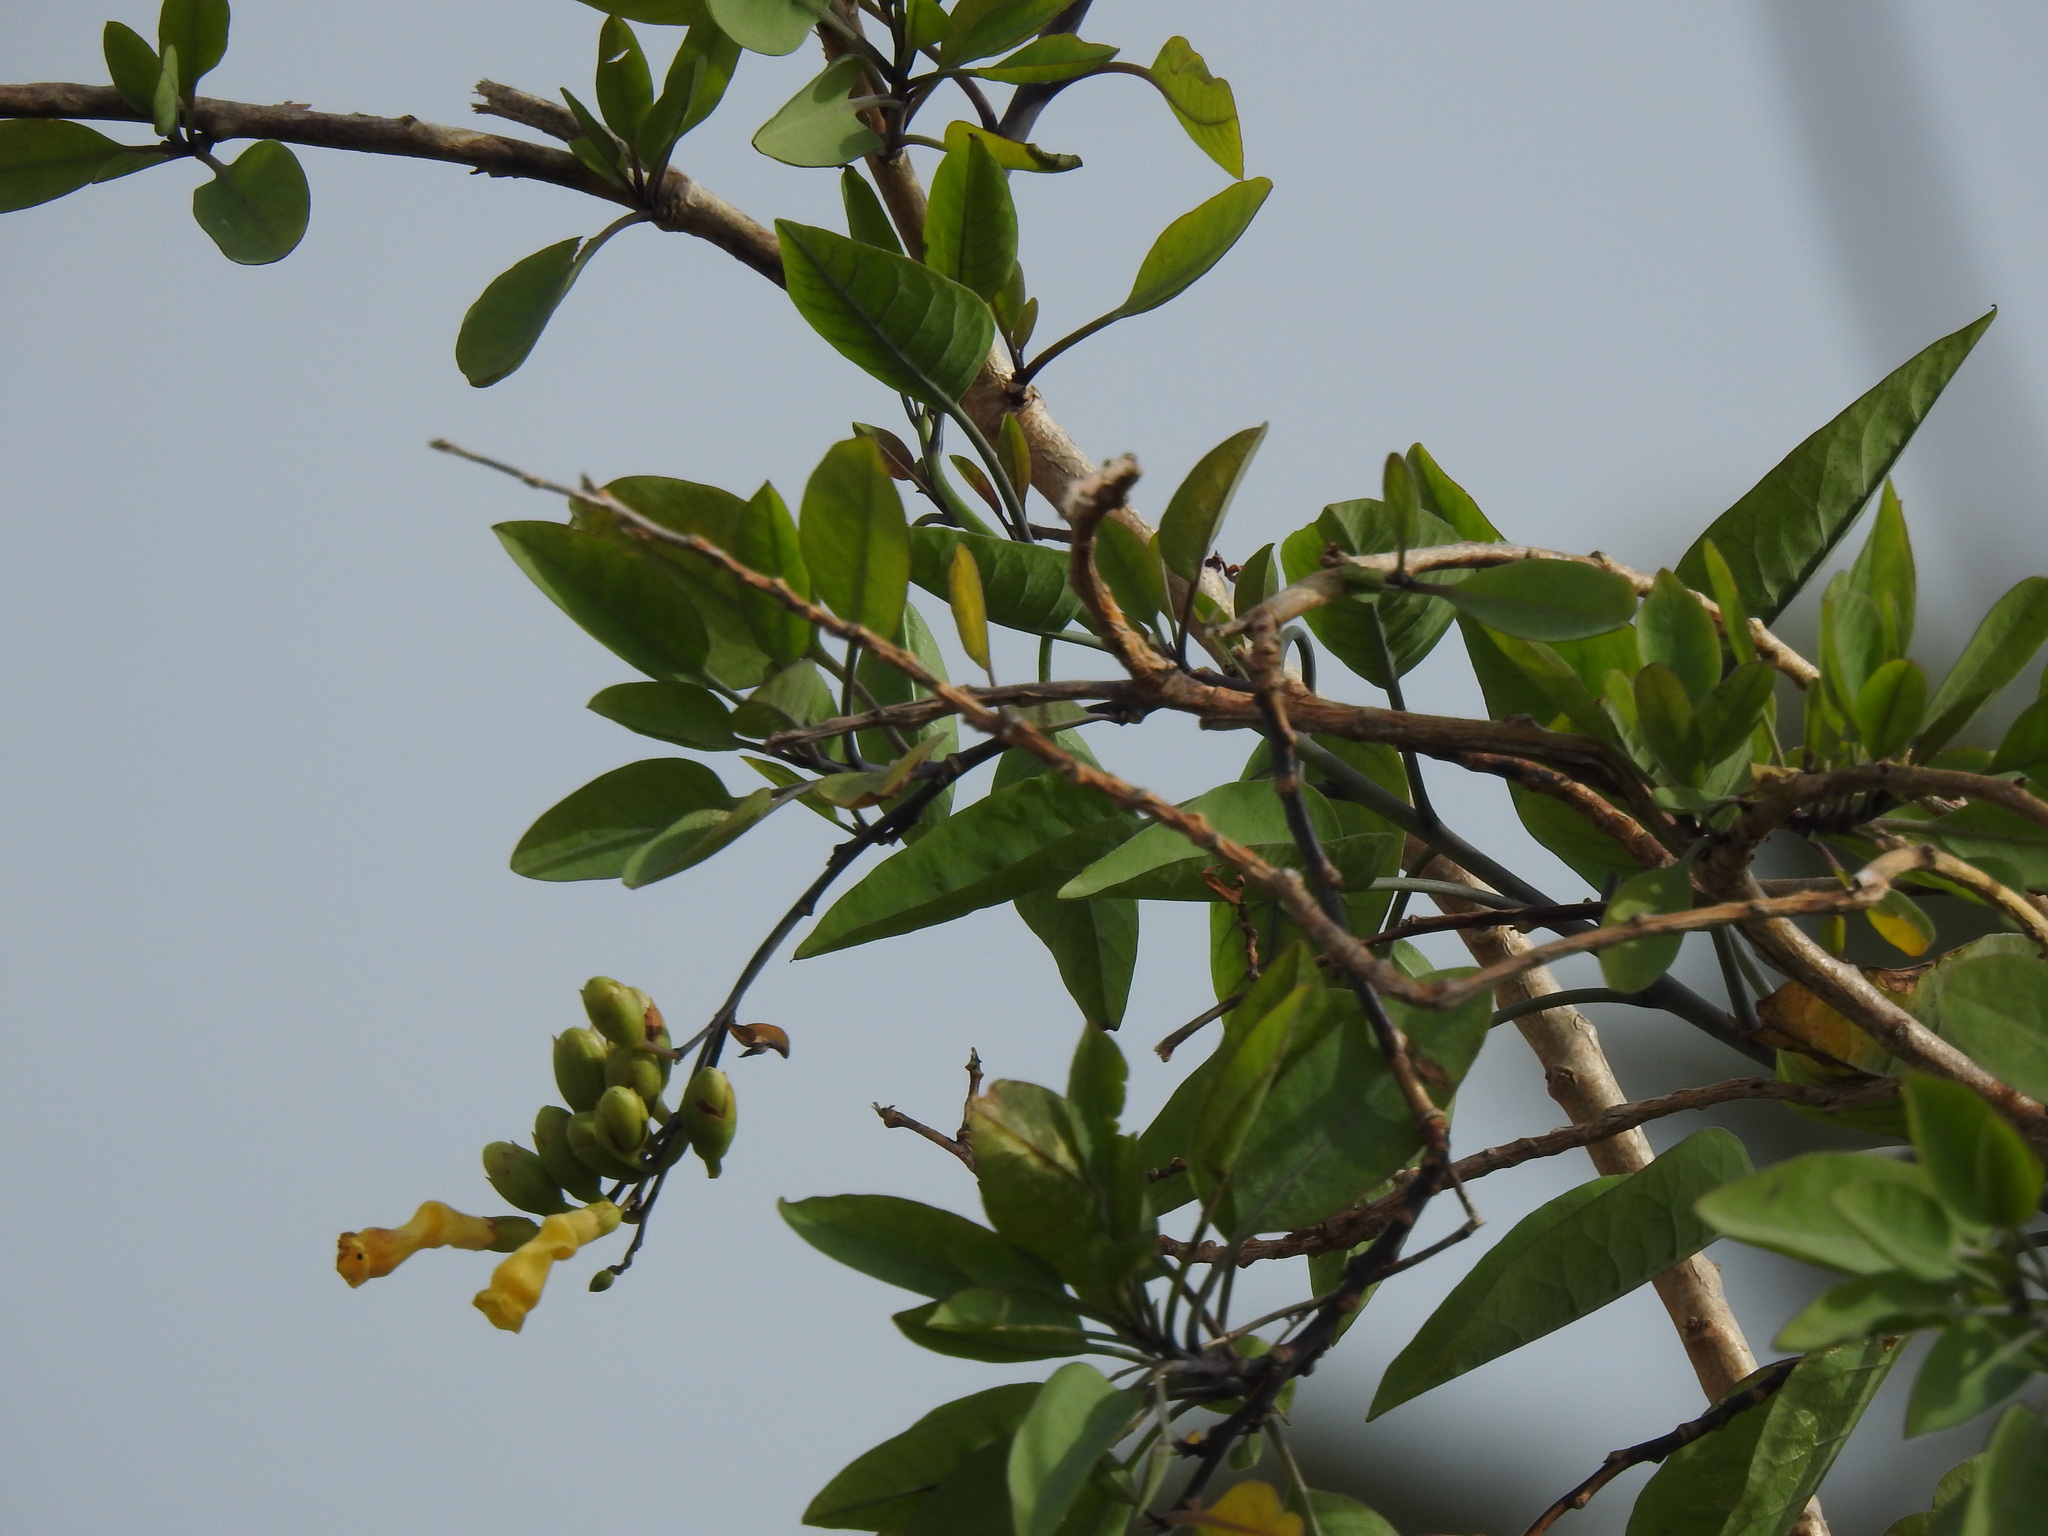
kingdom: Plantae
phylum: Tracheophyta
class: Magnoliopsida
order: Solanales
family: Solanaceae
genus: Nicotiana
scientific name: Nicotiana glauca
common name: Tree tobacco
